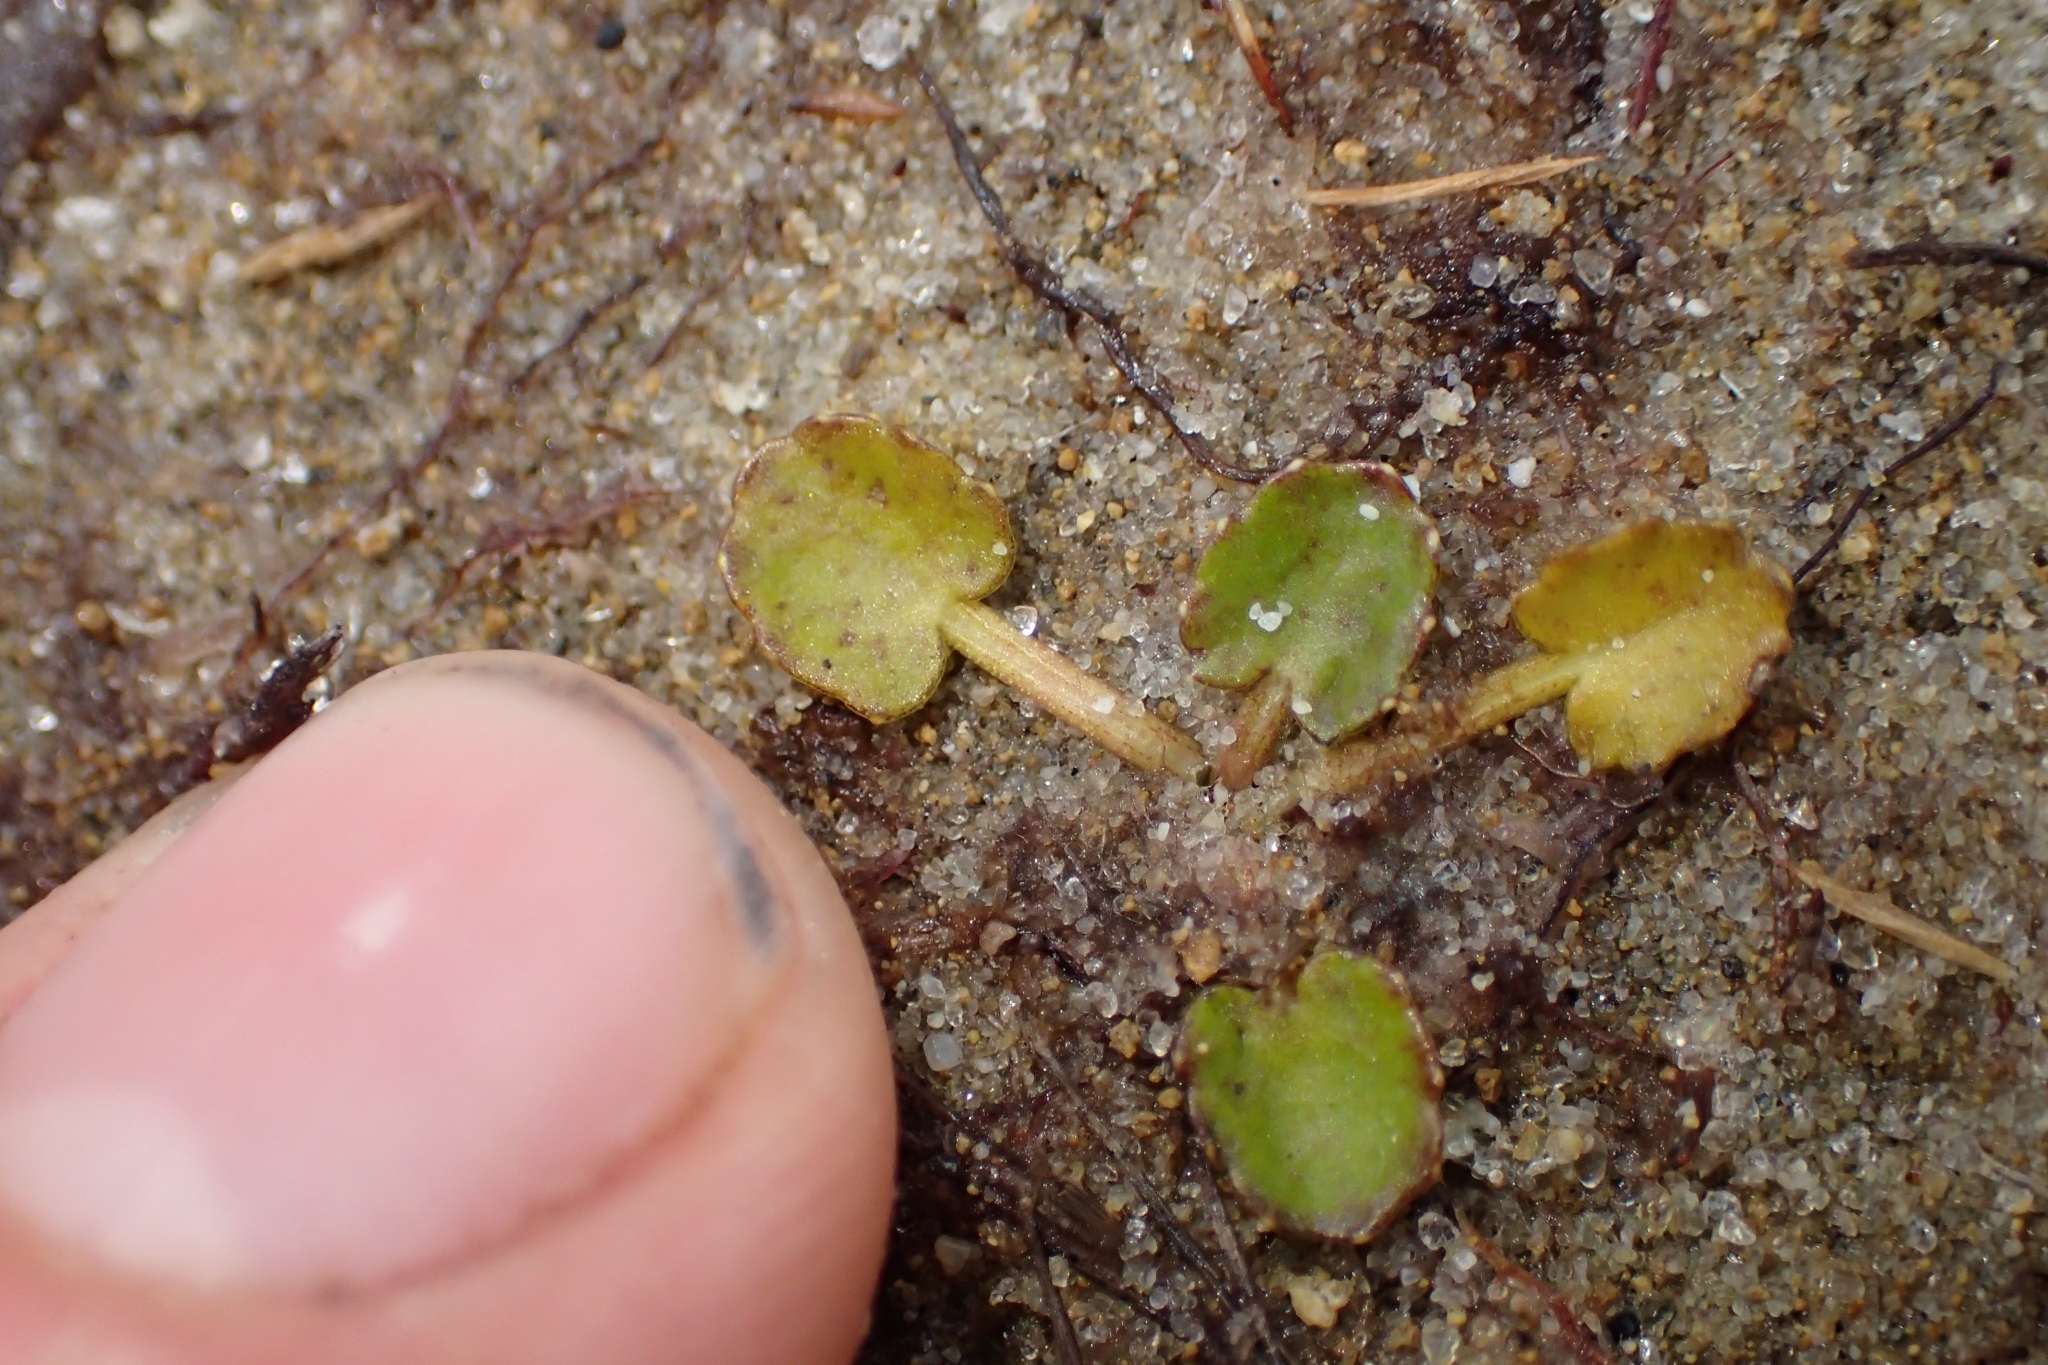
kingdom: Plantae
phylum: Tracheophyta
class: Magnoliopsida
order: Apiales
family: Apiaceae
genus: Centella
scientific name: Centella uniflora
